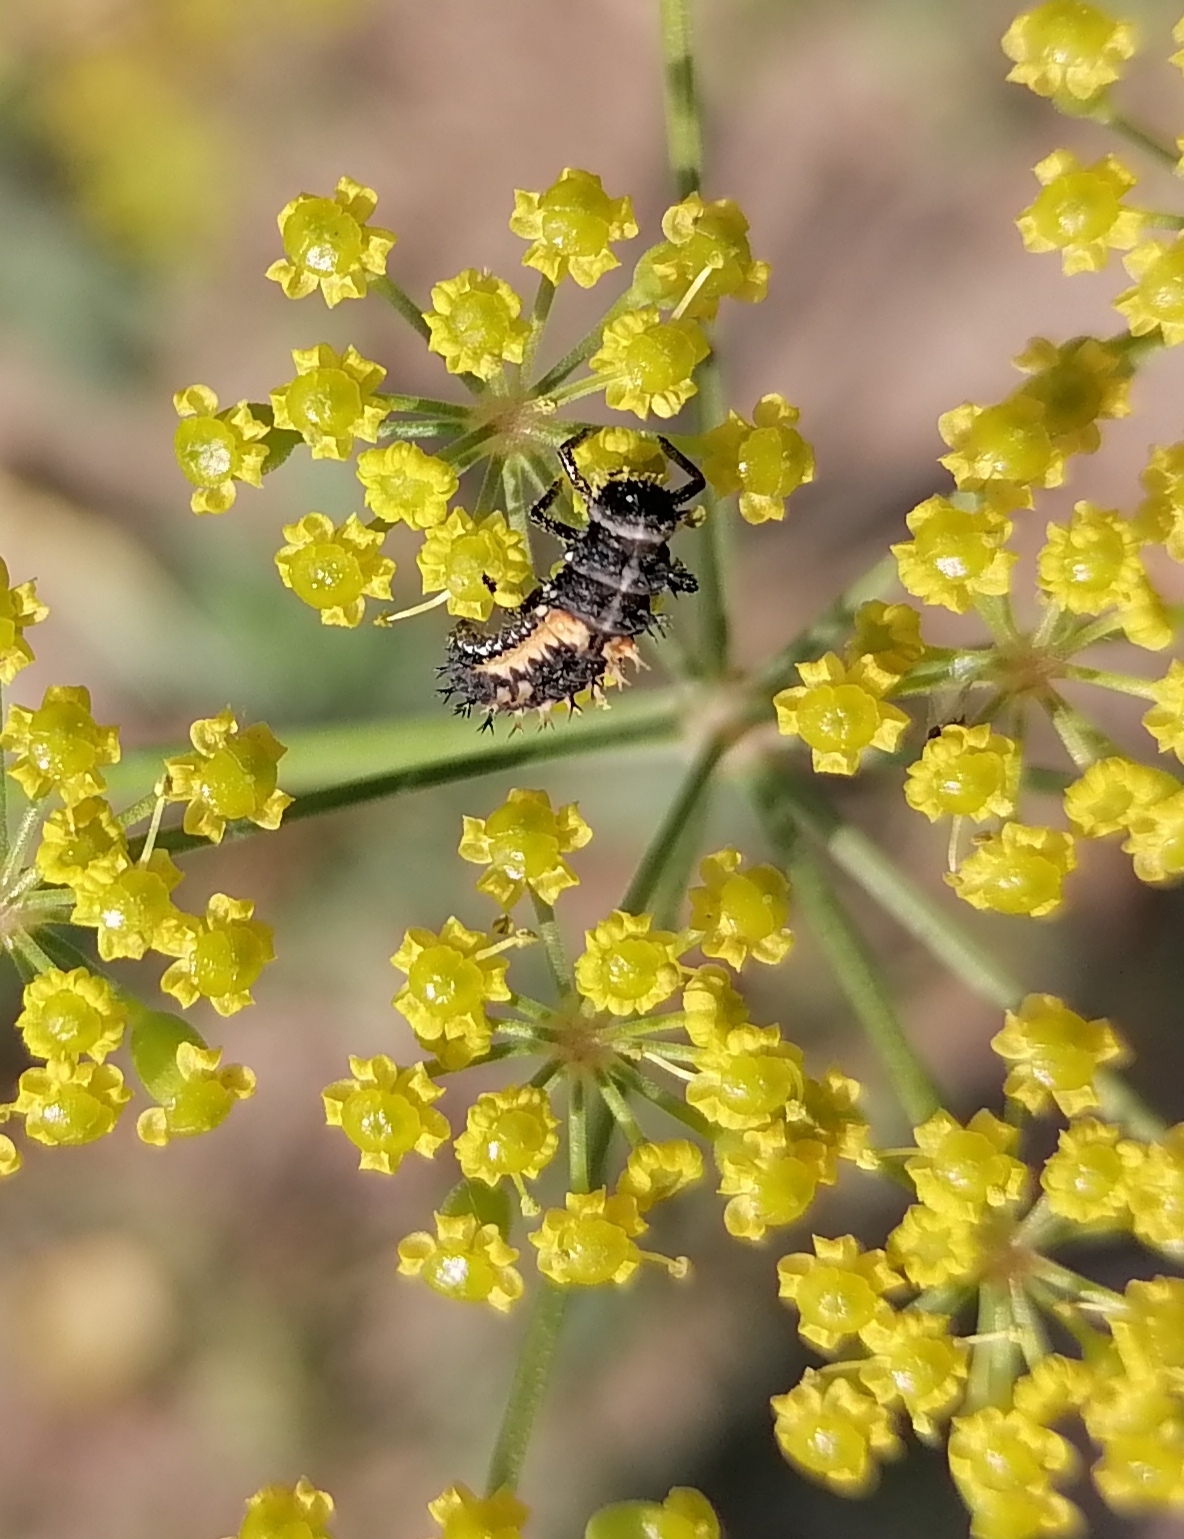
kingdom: Animalia
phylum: Arthropoda
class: Insecta
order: Coleoptera
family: Coccinellidae
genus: Harmonia
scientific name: Harmonia axyridis
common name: Harlequin ladybird
